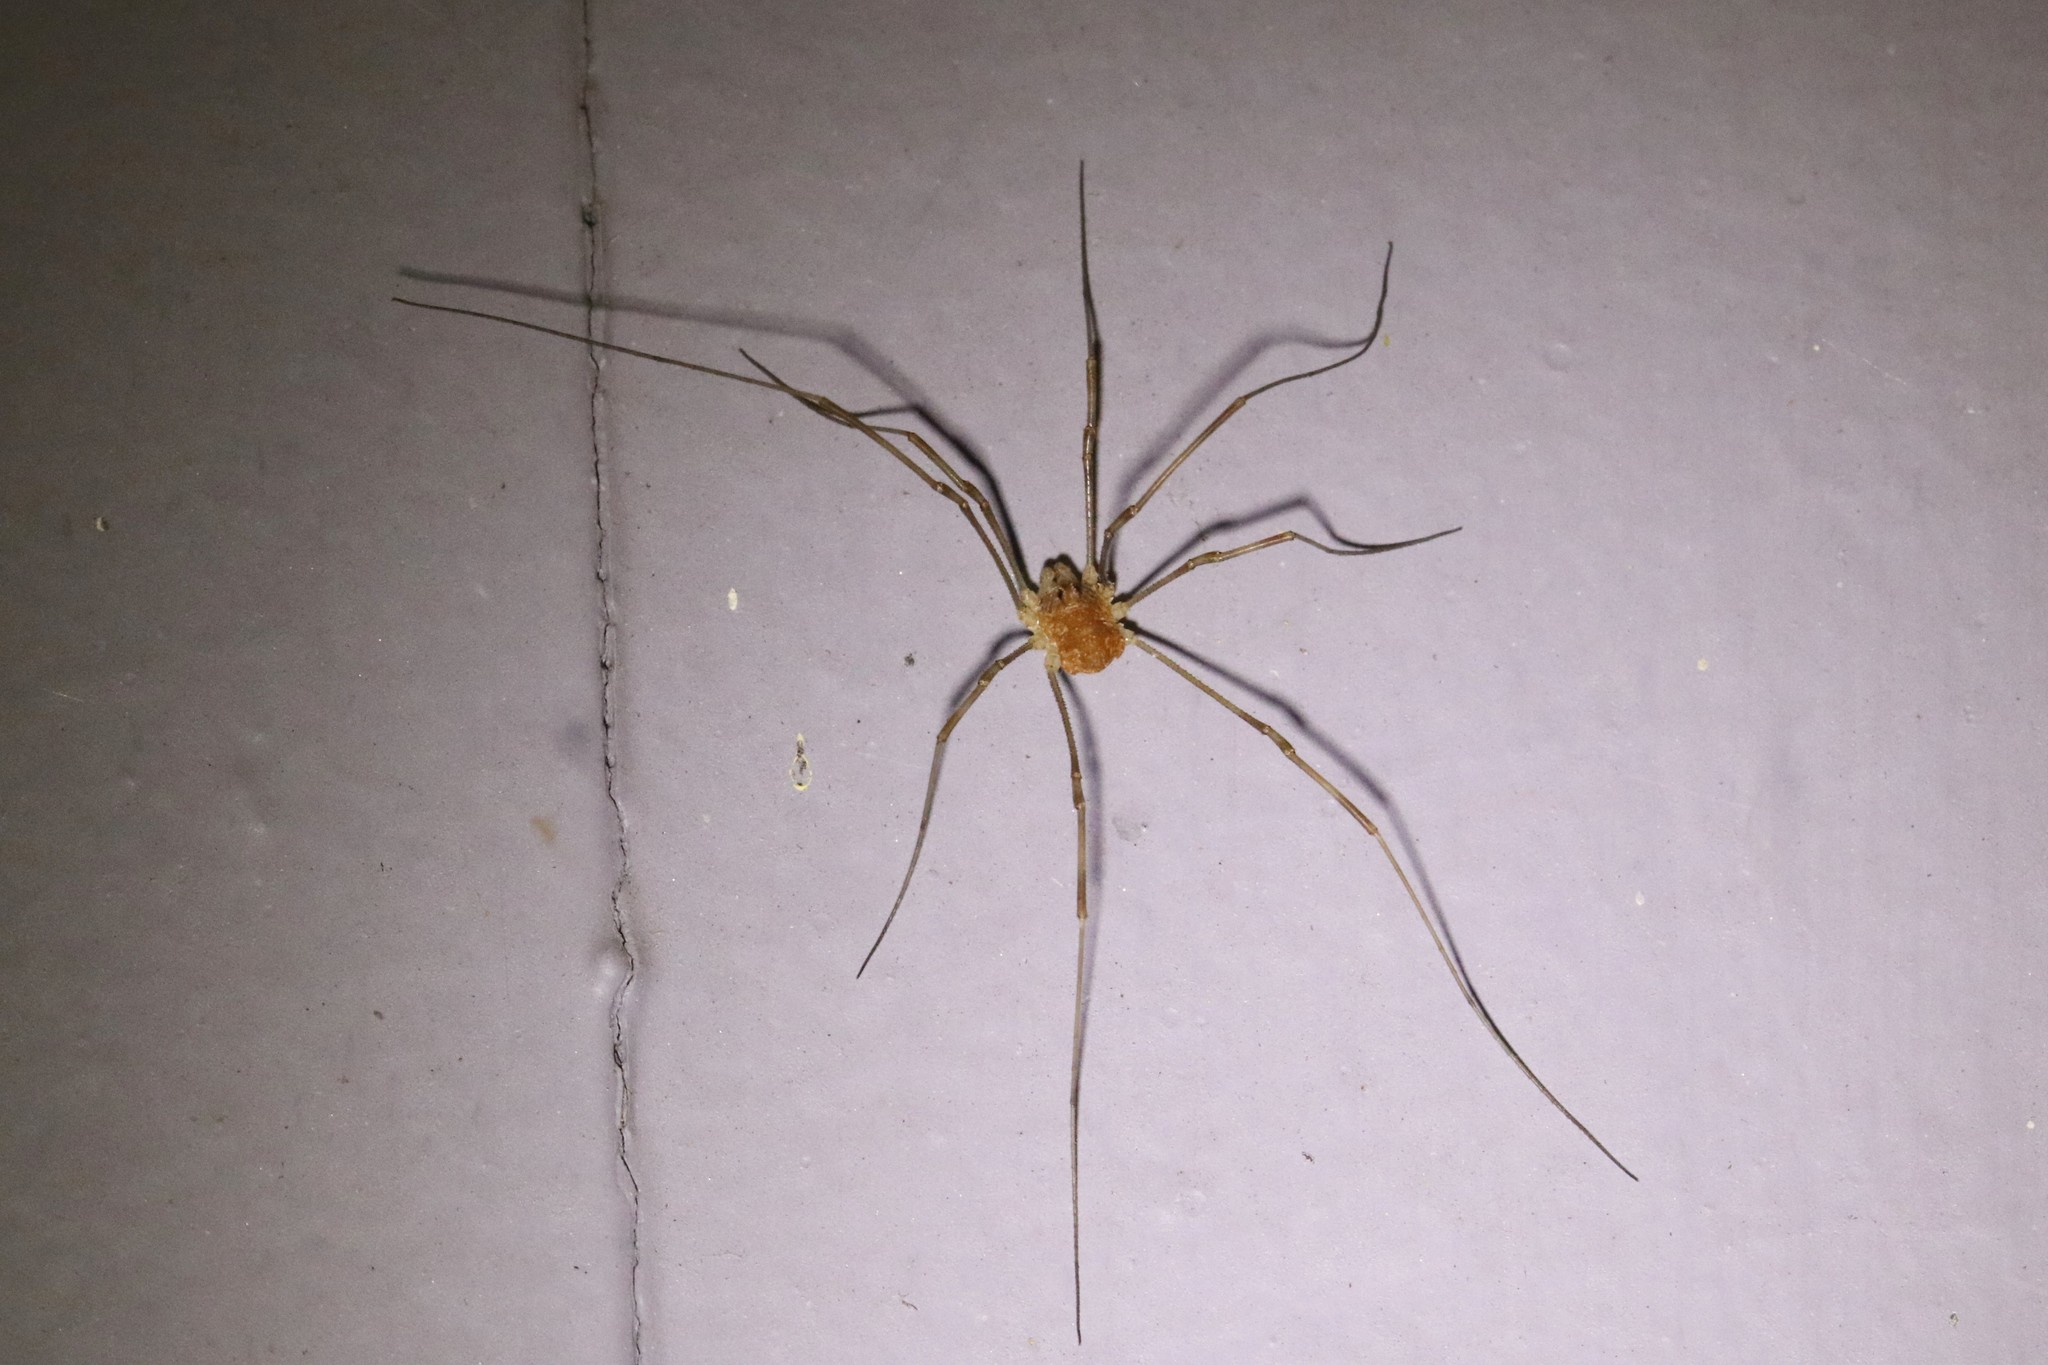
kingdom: Animalia
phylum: Arthropoda
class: Arachnida
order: Opiliones
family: Phalangiidae
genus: Rilaena
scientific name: Rilaena triangularis
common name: Spring harvestman
